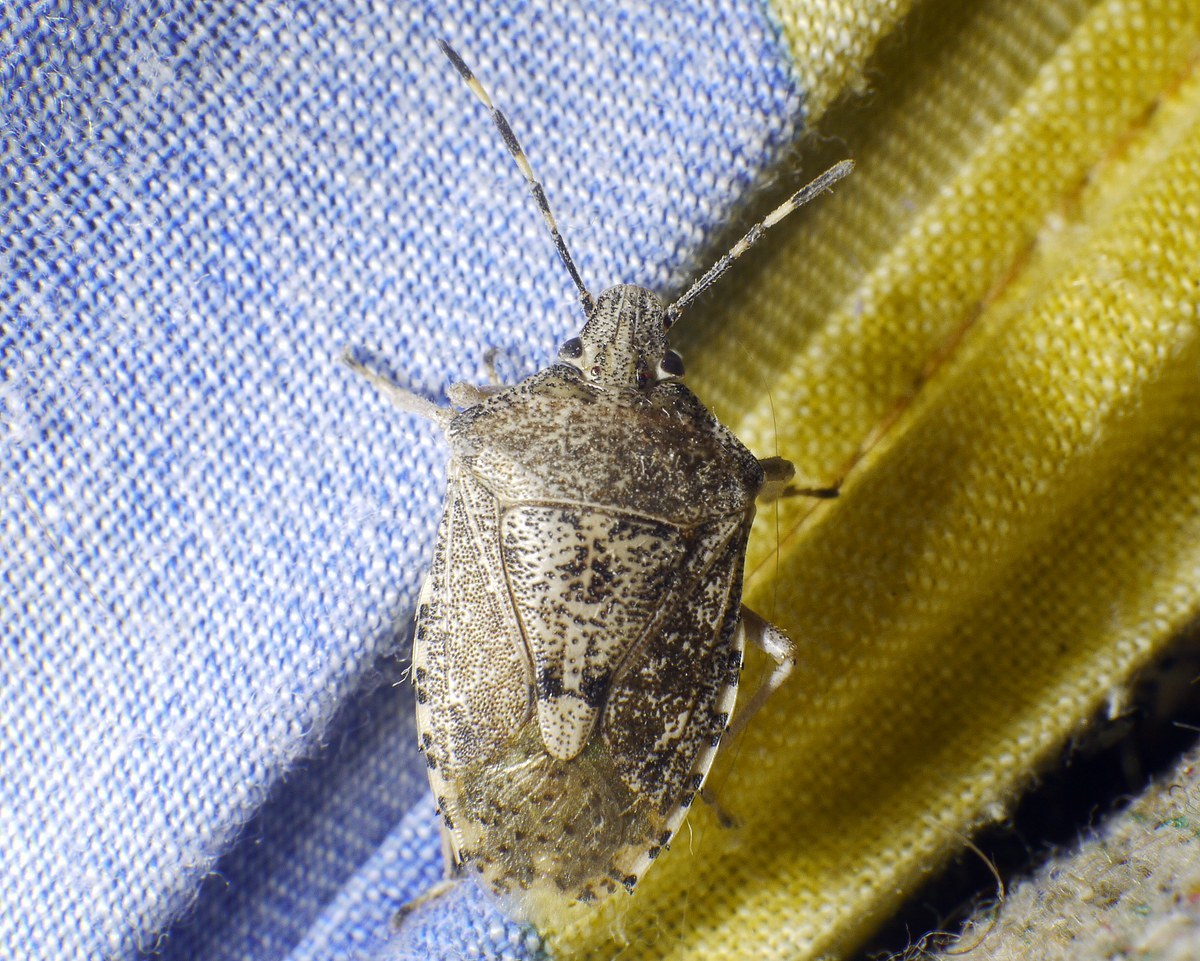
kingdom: Animalia
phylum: Arthropoda
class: Insecta
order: Hemiptera
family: Pentatomidae
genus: Rhaphigaster
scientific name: Rhaphigaster nebulosa
